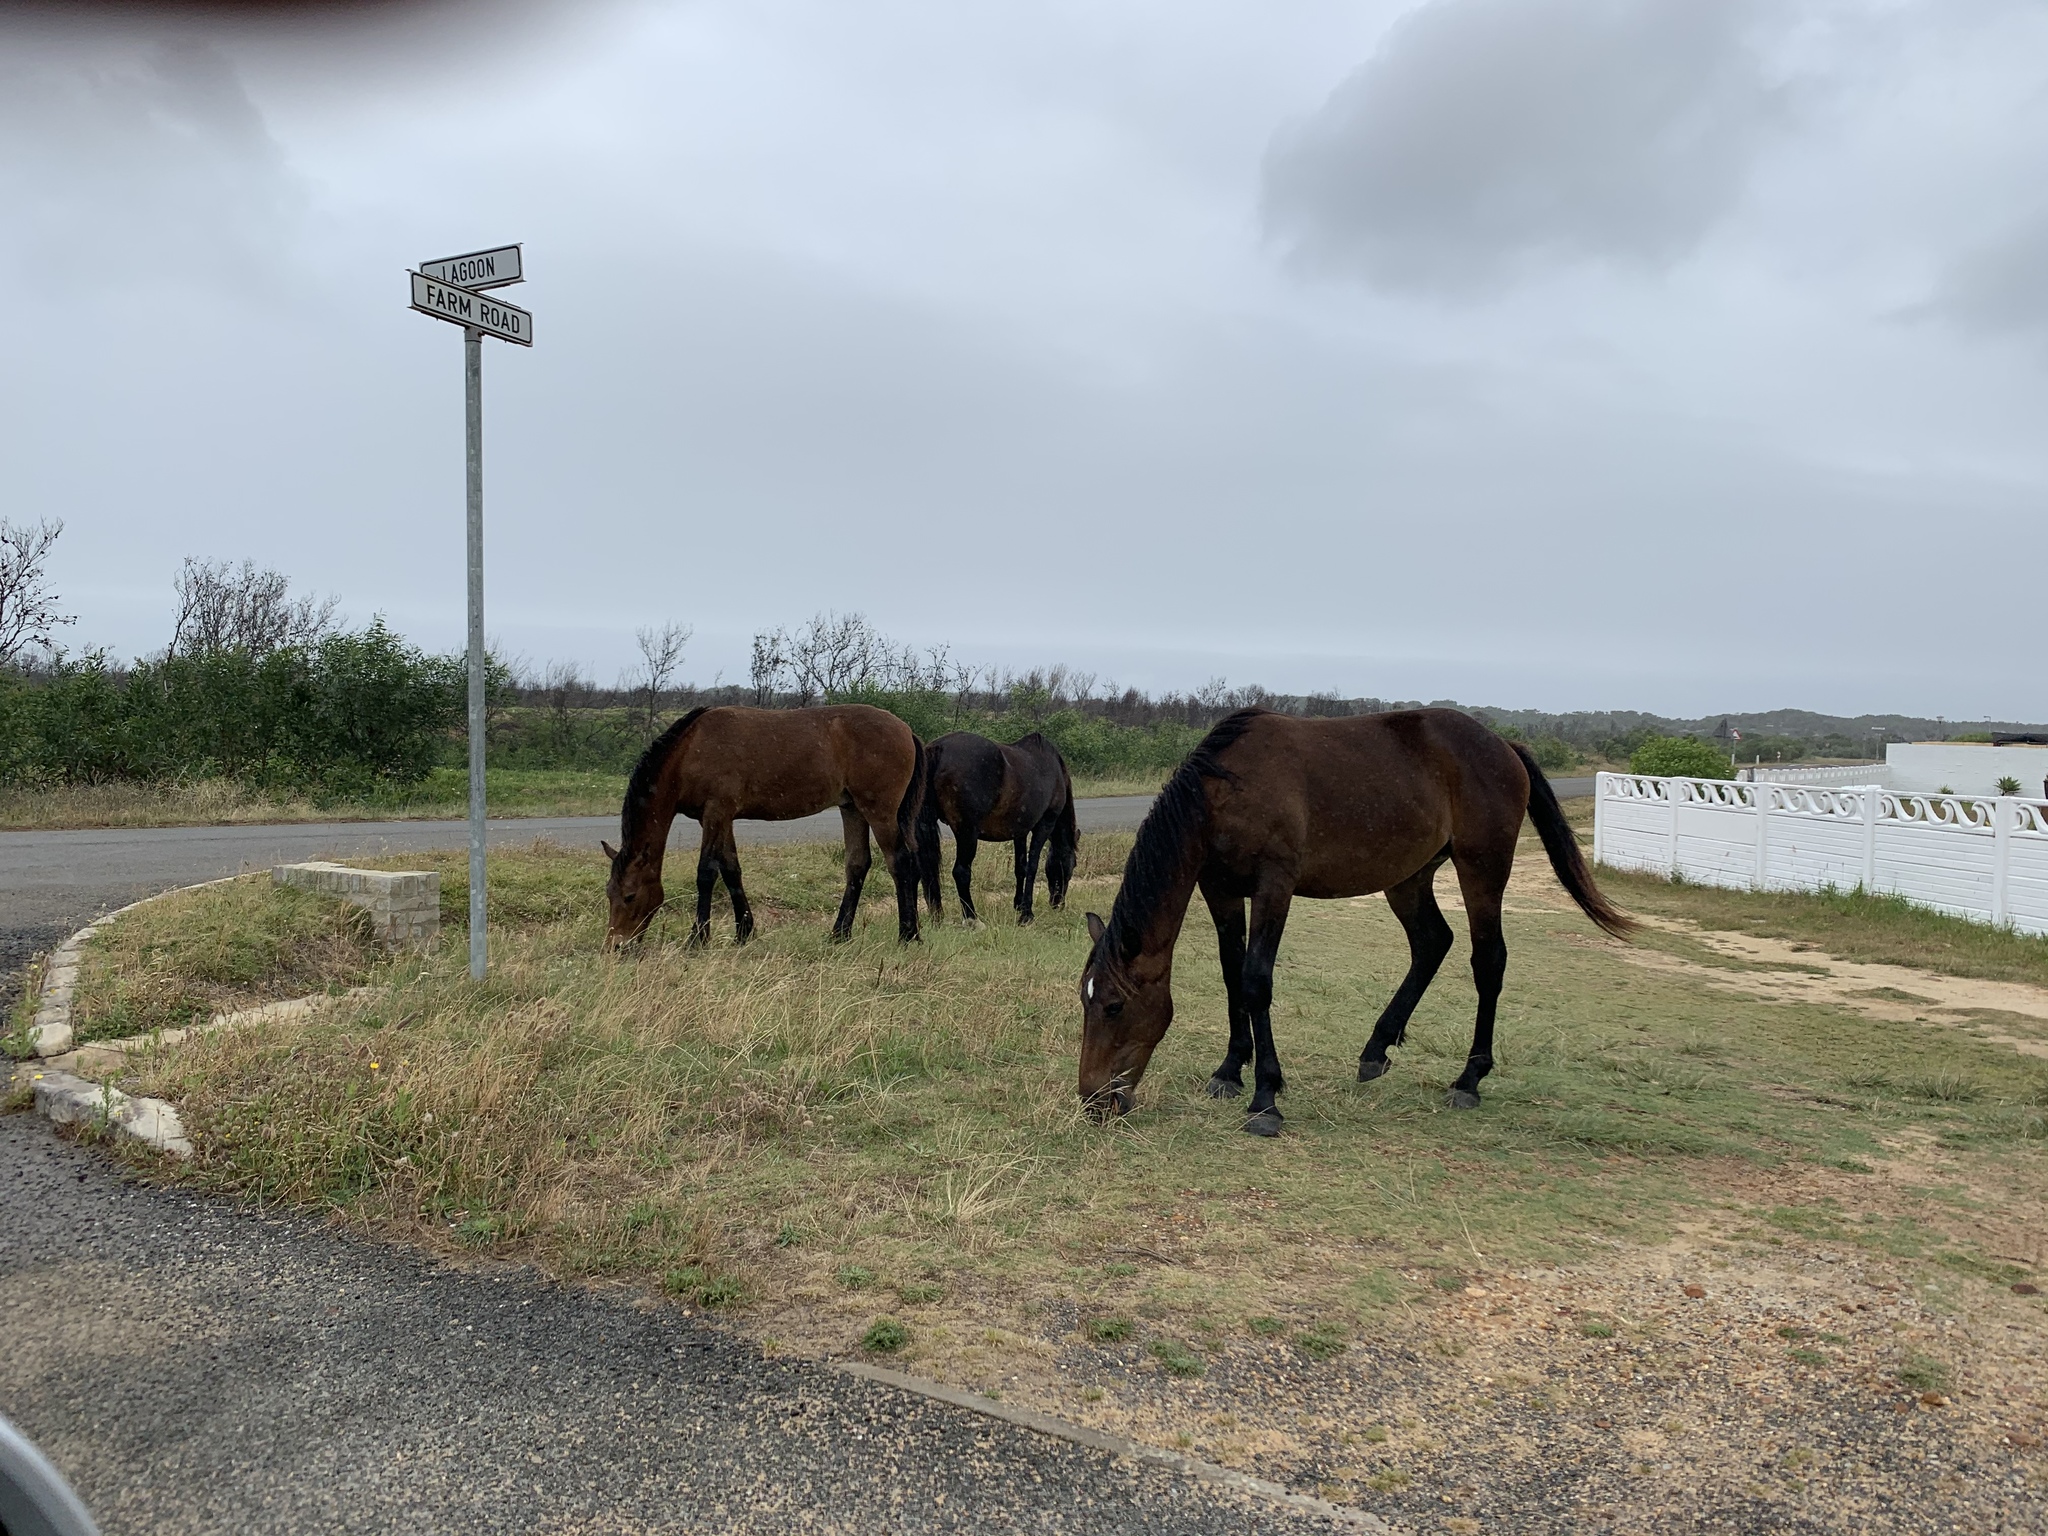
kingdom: Animalia
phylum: Chordata
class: Mammalia
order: Perissodactyla
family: Equidae
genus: Equus
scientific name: Equus caballus
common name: Horse
